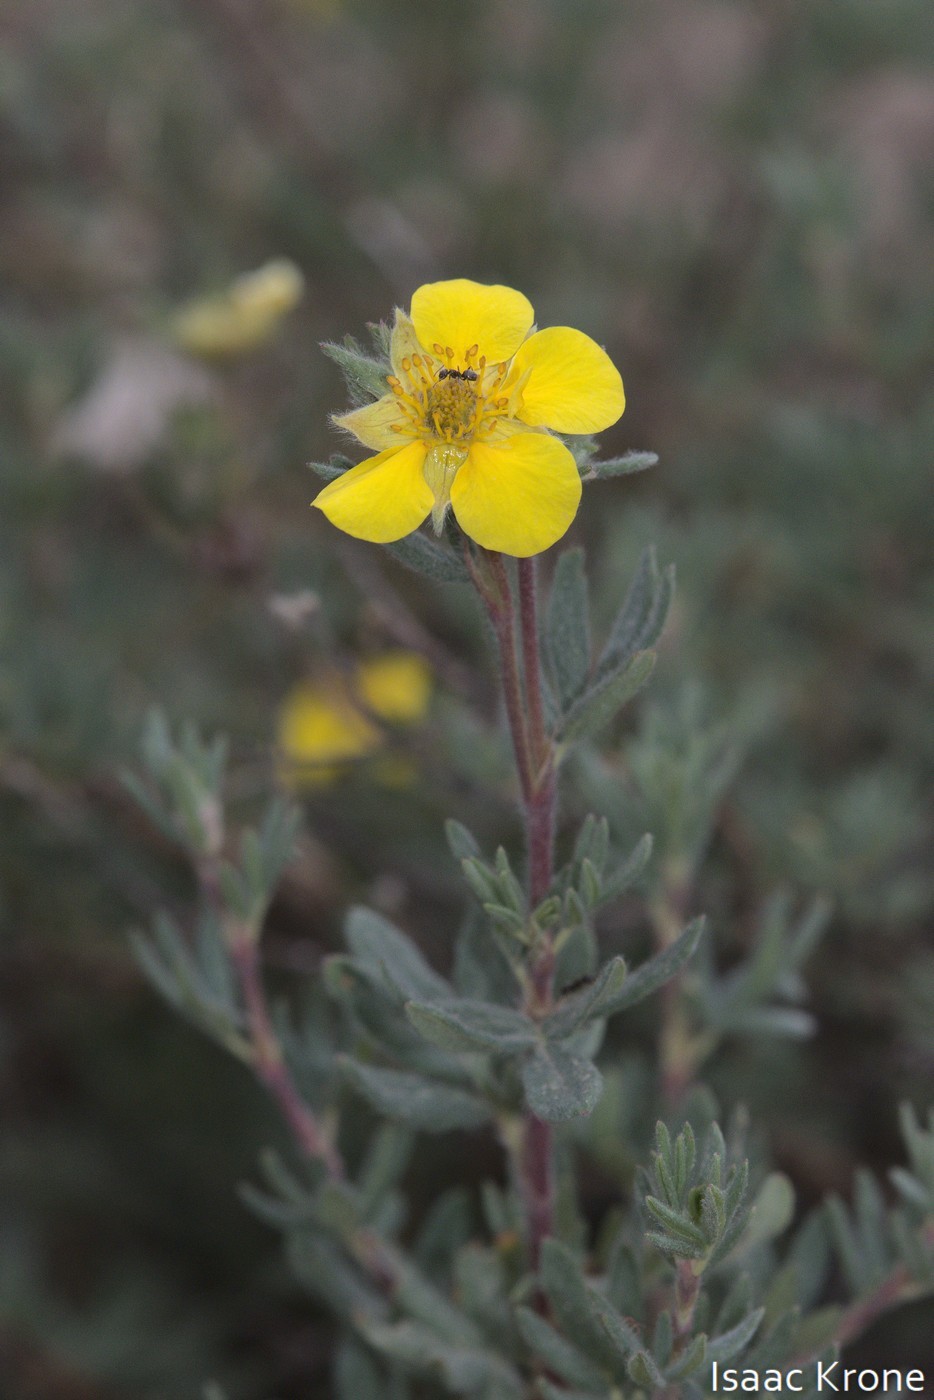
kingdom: Plantae
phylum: Tracheophyta
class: Magnoliopsida
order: Rosales
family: Rosaceae
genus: Dasiphora
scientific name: Dasiphora fruticosa
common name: Shrubby cinquefoil
